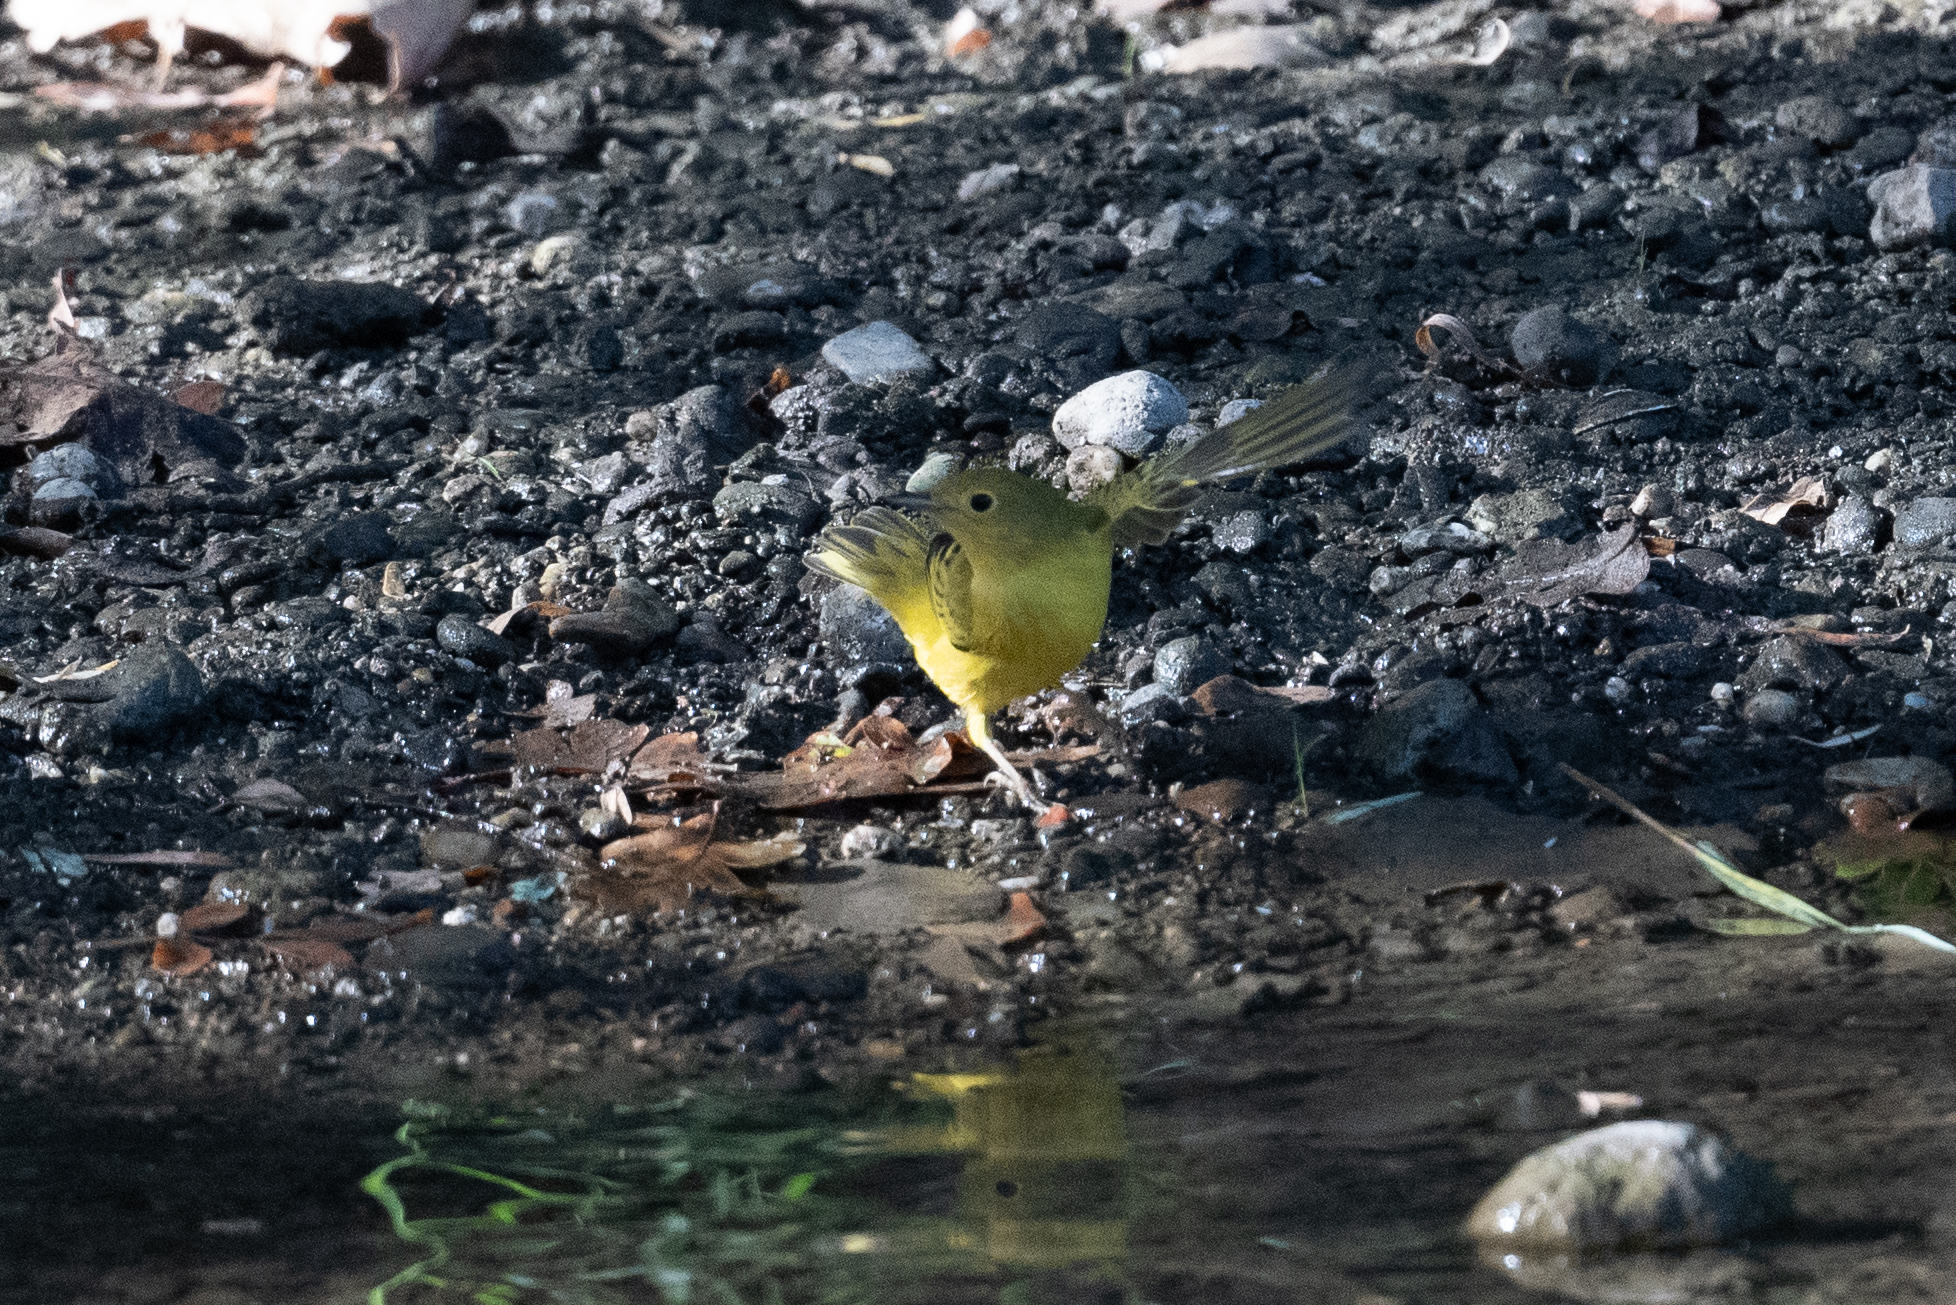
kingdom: Animalia
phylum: Chordata
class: Aves
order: Passeriformes
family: Parulidae
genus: Setophaga
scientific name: Setophaga petechia
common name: Yellow warbler
